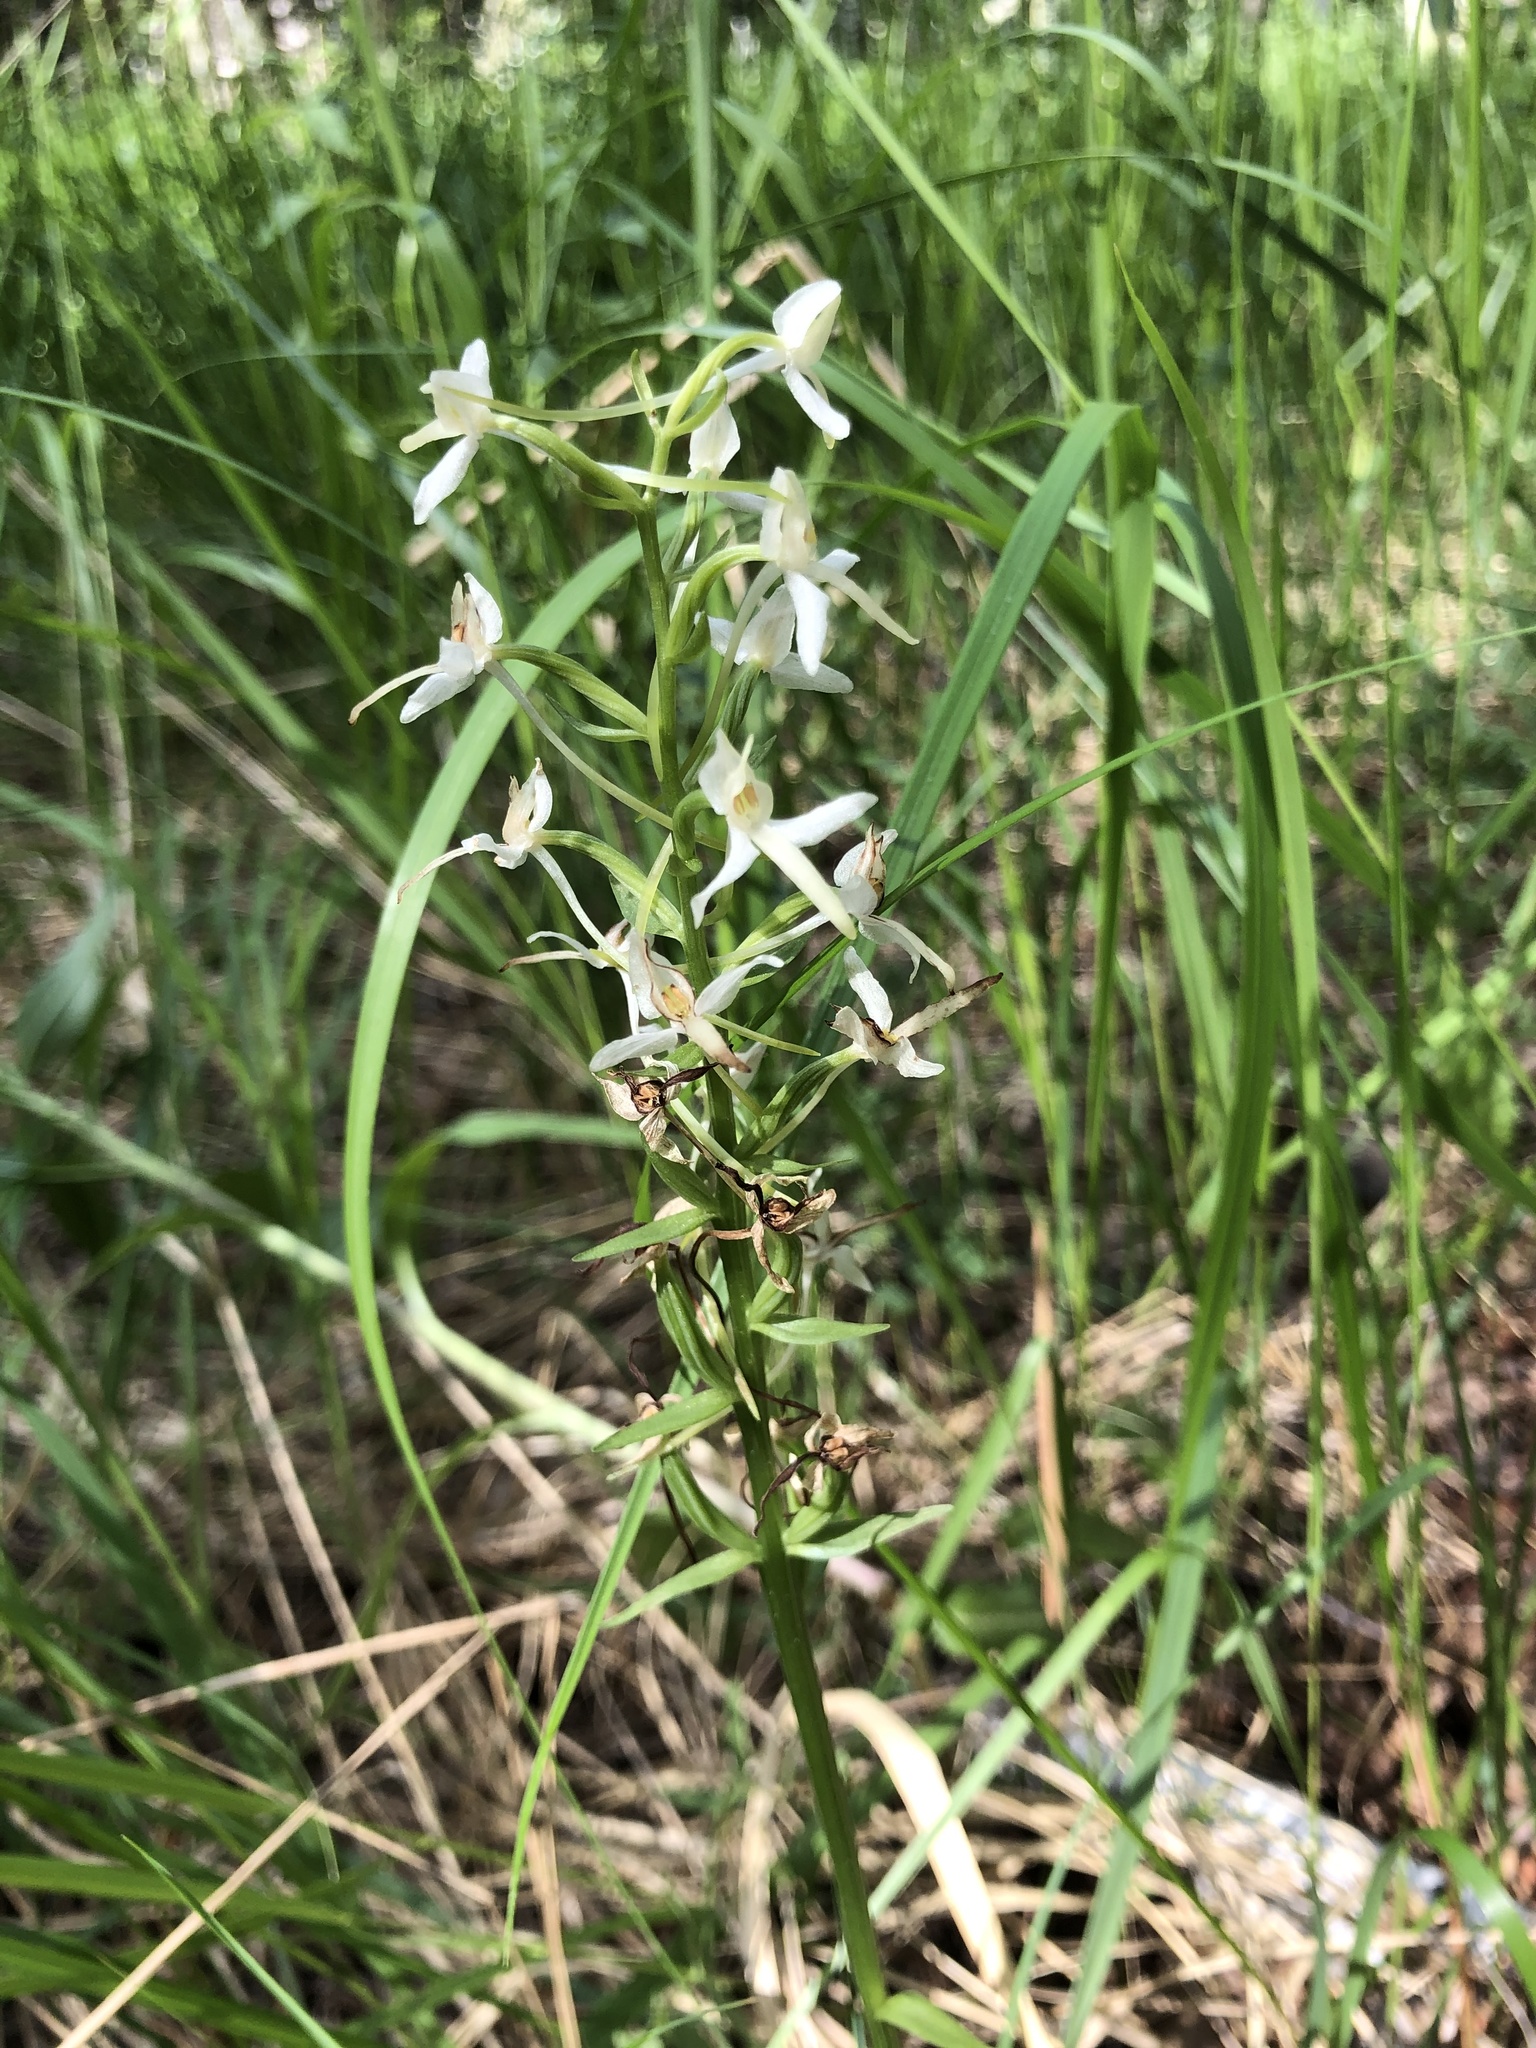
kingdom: Plantae
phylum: Tracheophyta
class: Liliopsida
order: Asparagales
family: Orchidaceae
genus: Platanthera
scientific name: Platanthera bifolia
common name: Lesser butterfly-orchid
